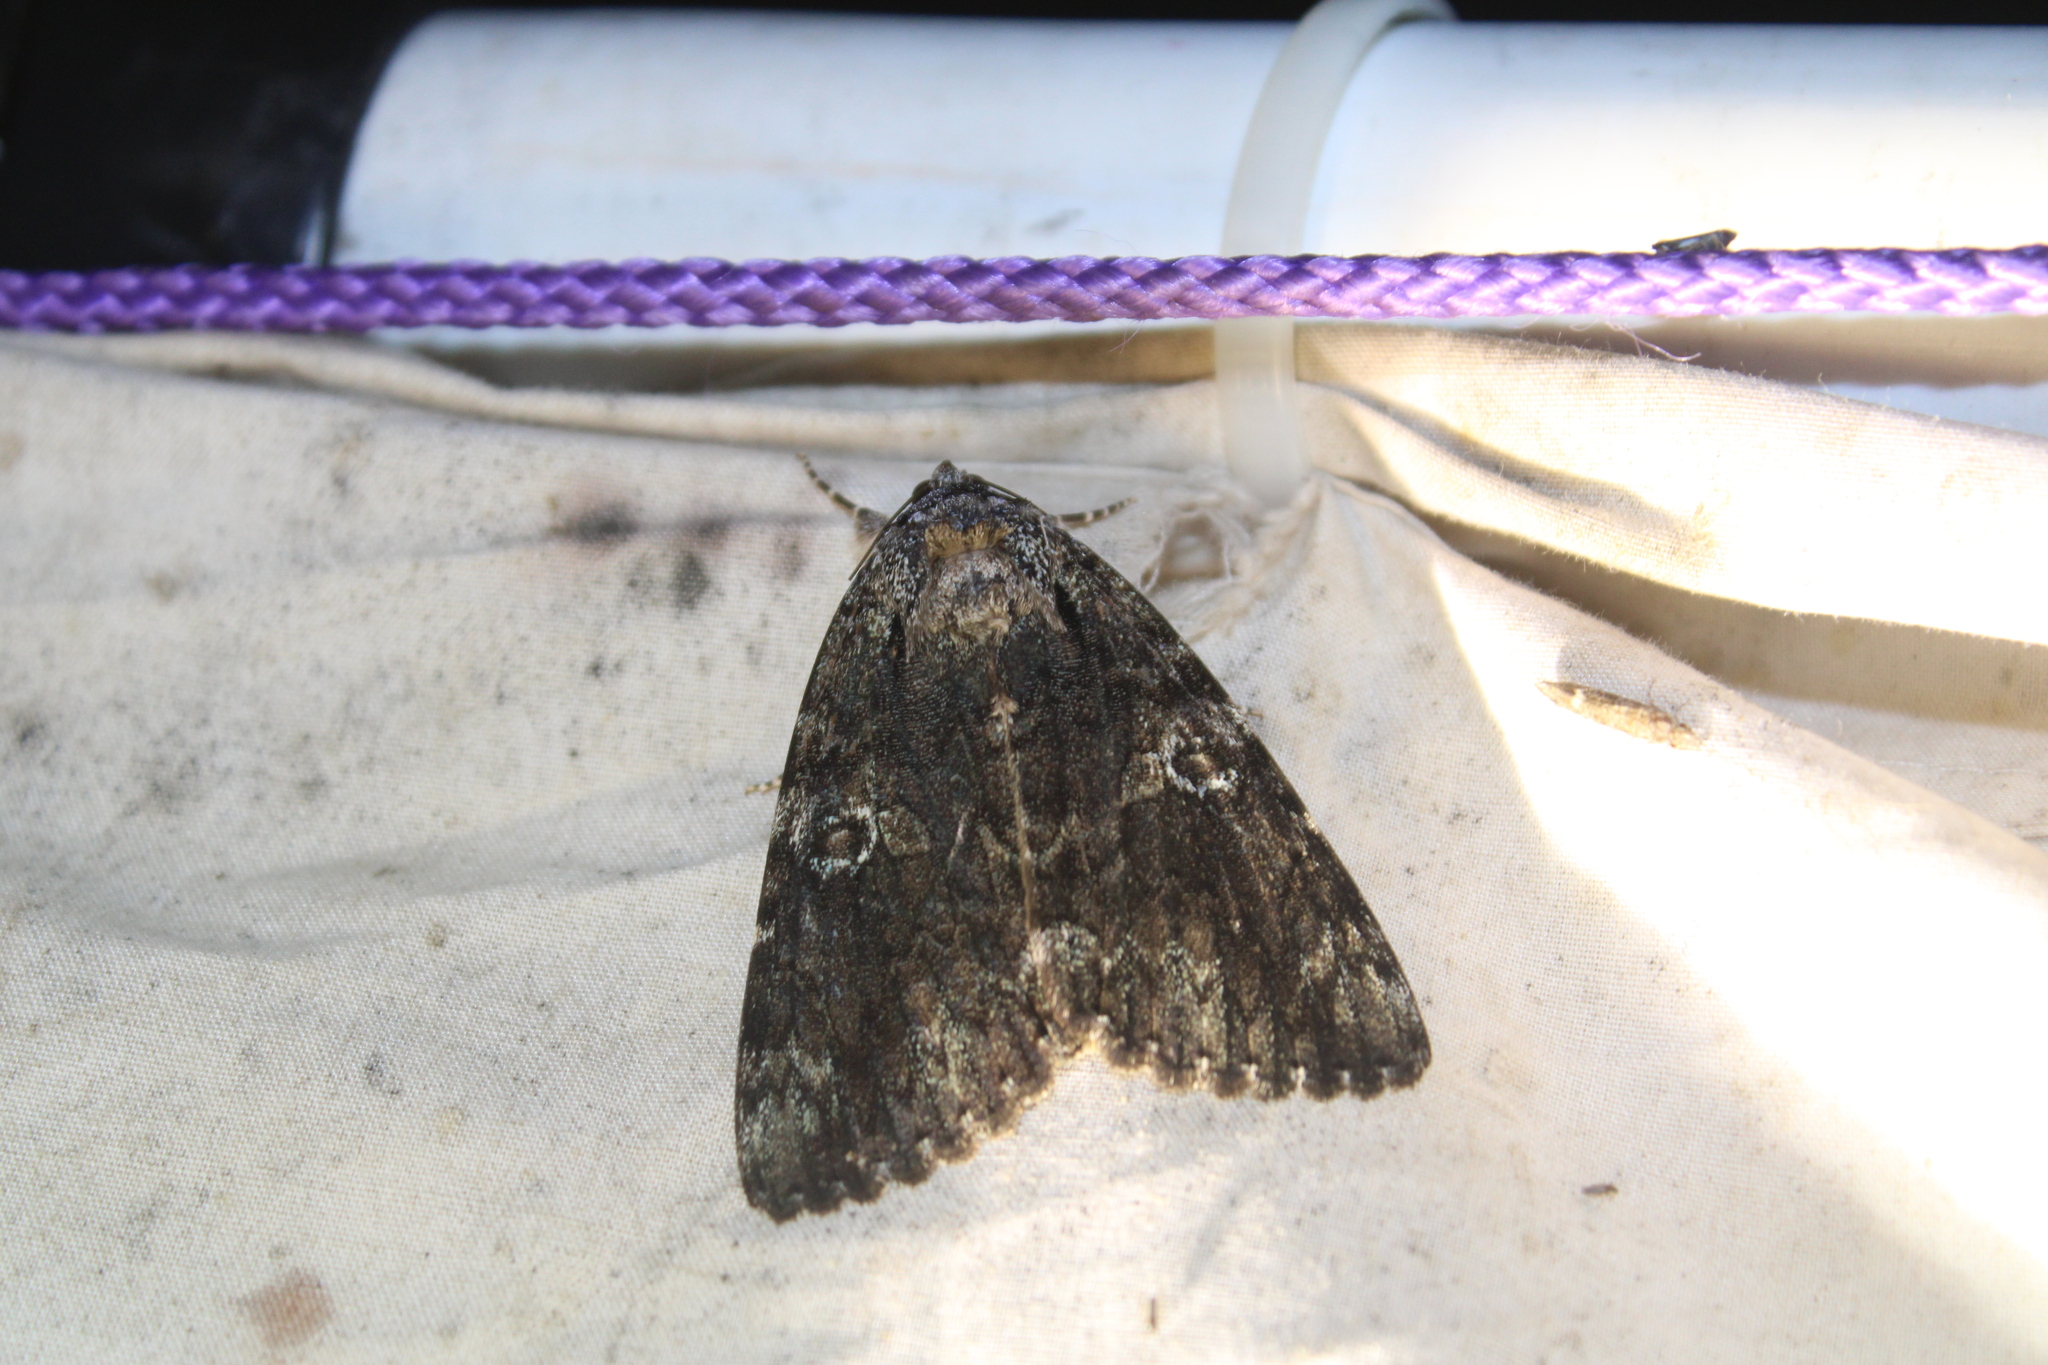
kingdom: Animalia
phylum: Arthropoda
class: Insecta
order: Lepidoptera
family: Erebidae
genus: Catocala
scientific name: Catocala ilia
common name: Ilia underwing
